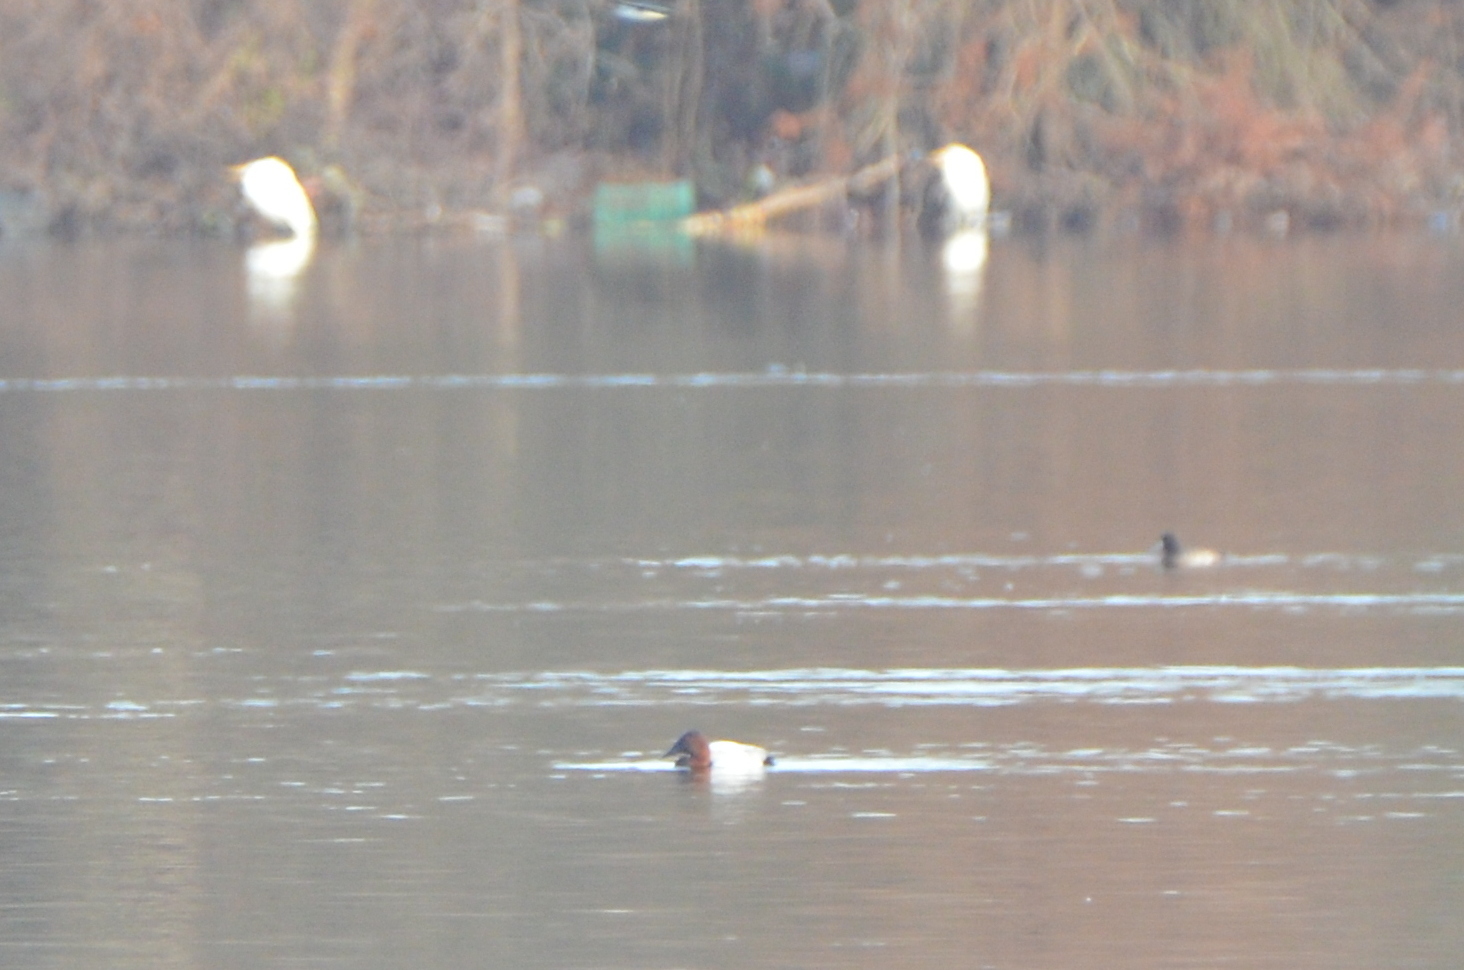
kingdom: Animalia
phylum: Chordata
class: Aves
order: Anseriformes
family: Anatidae
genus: Aythya
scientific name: Aythya valisineria
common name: Canvasback
